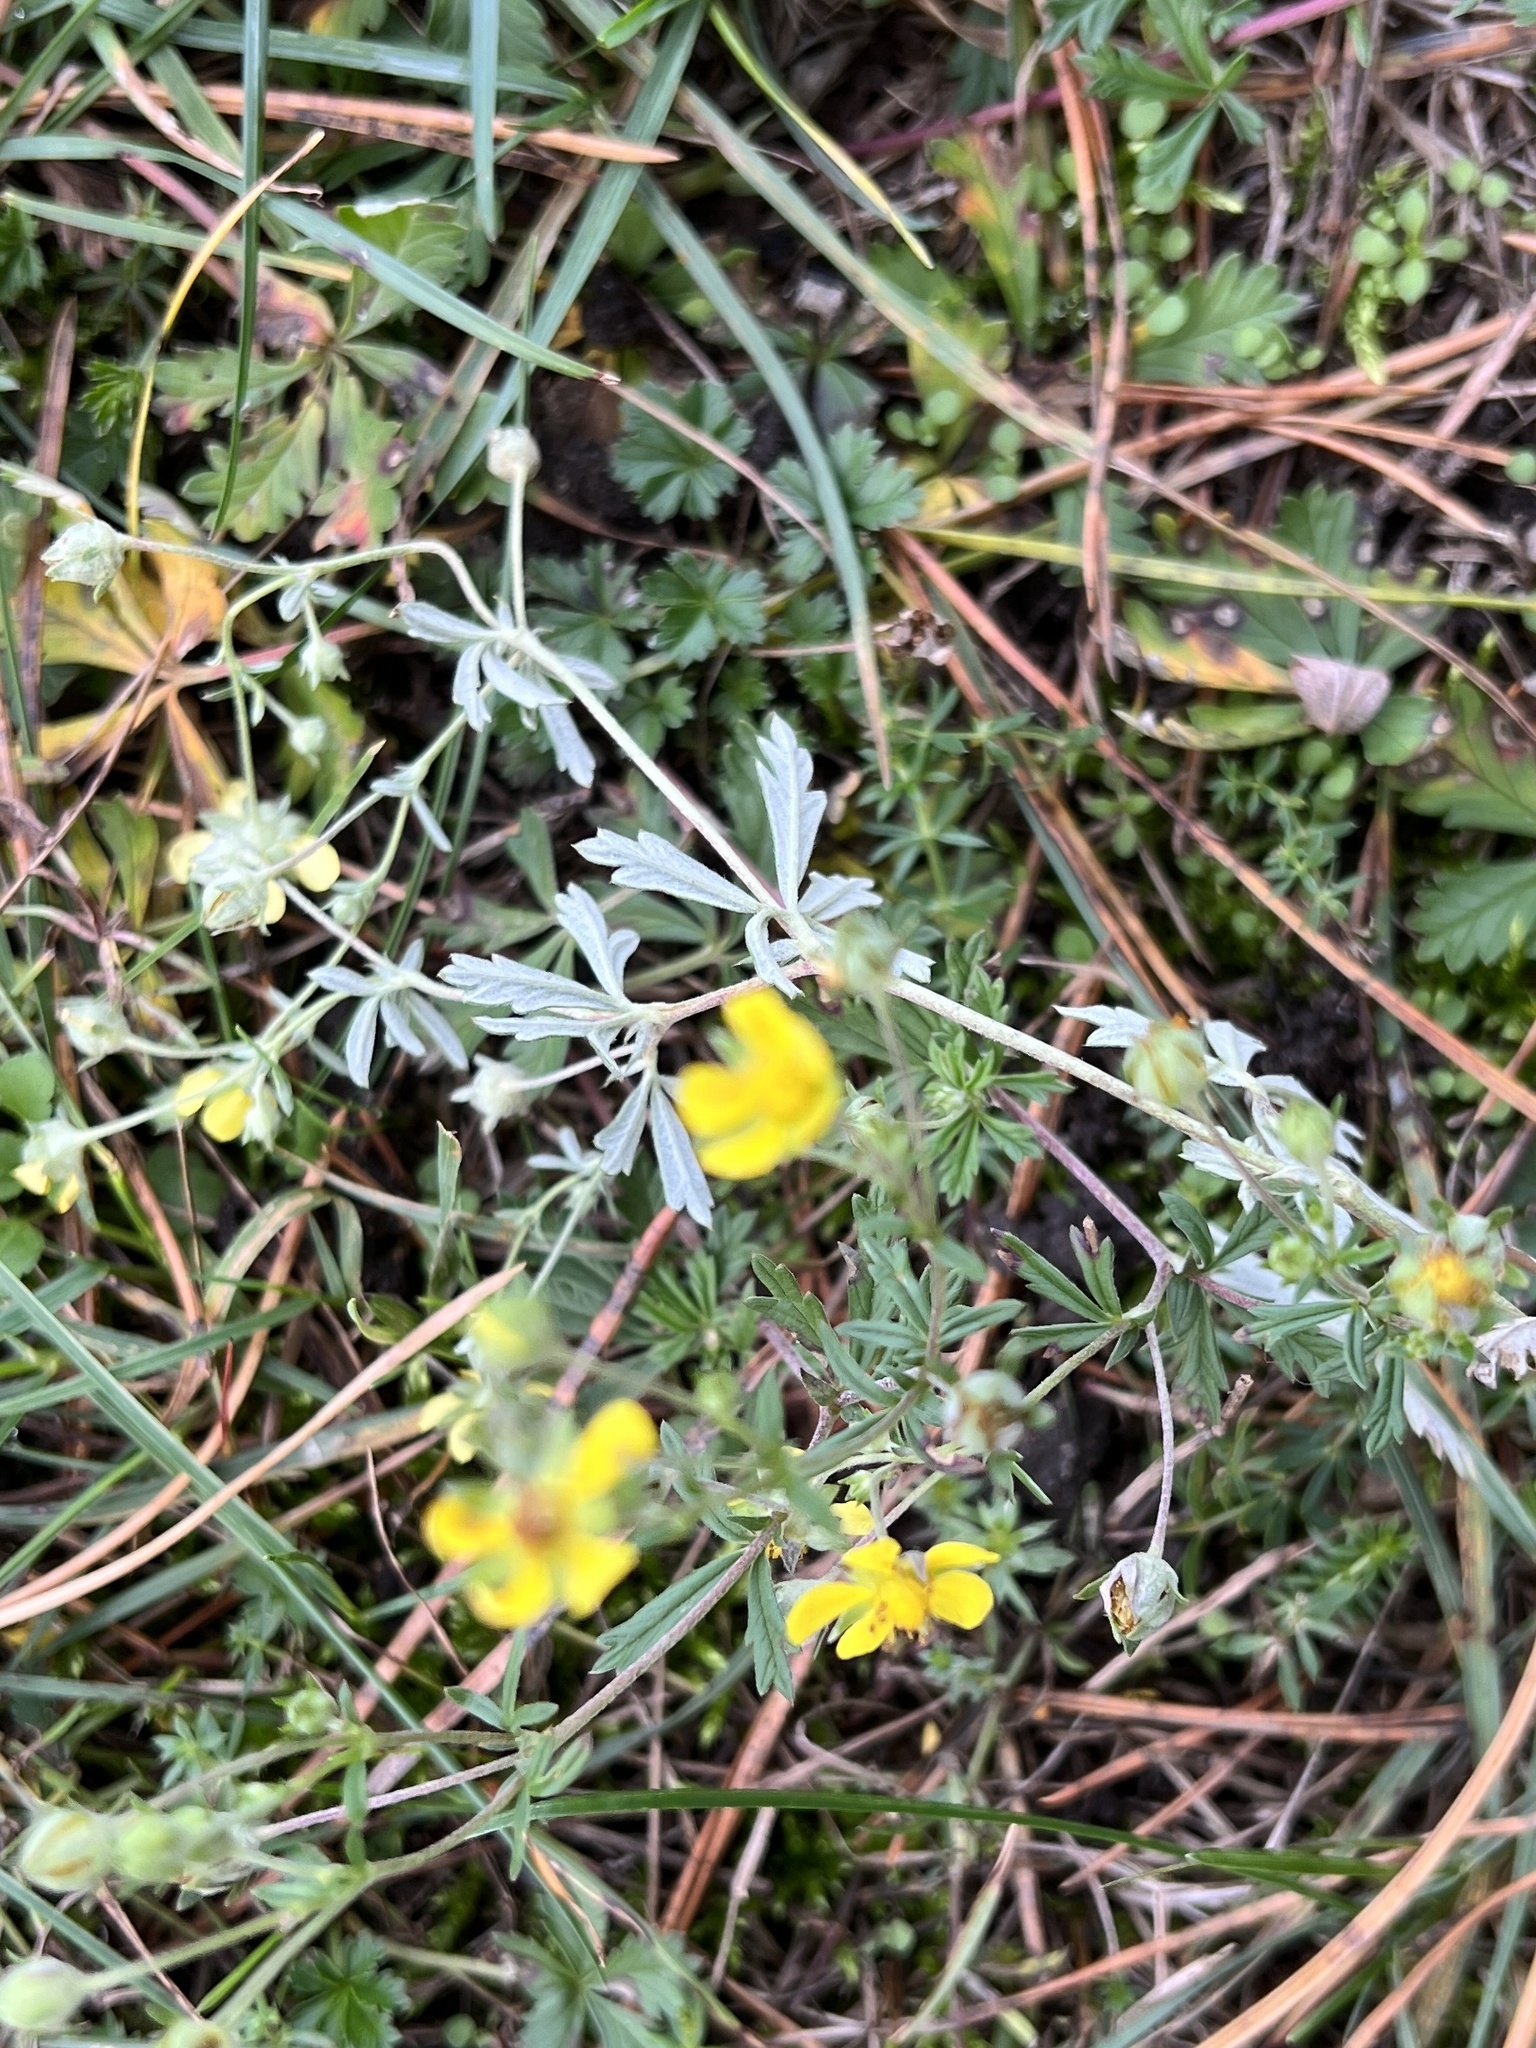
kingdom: Plantae
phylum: Tracheophyta
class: Magnoliopsida
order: Rosales
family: Rosaceae
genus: Potentilla
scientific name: Potentilla argentea
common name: Hoary cinquefoil
